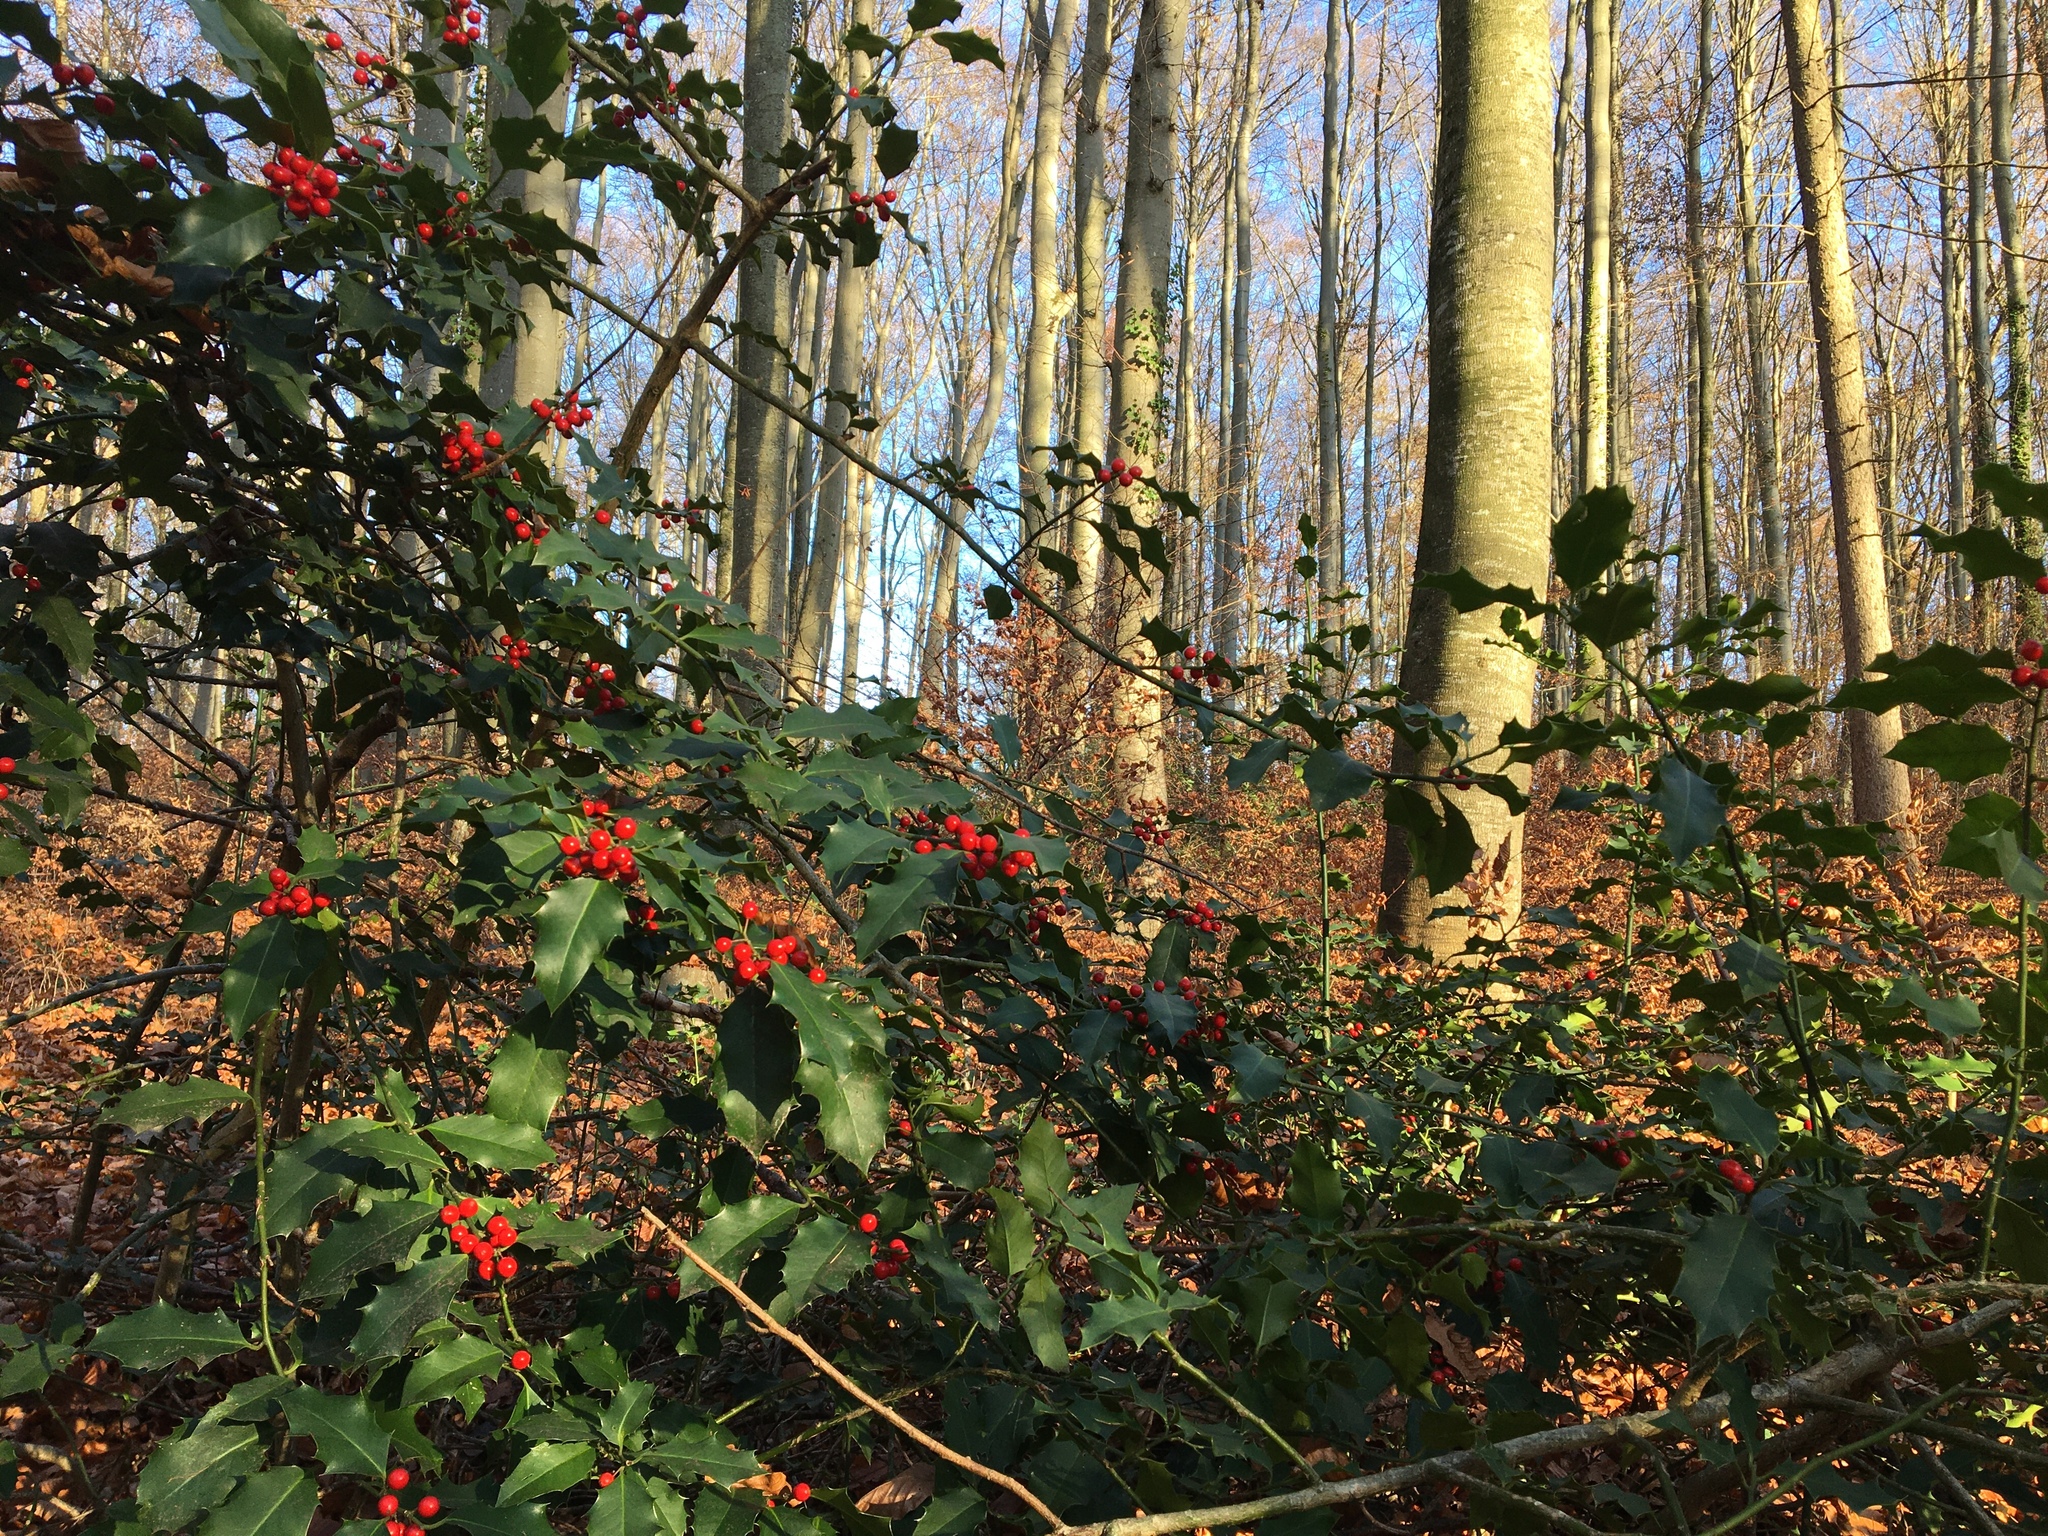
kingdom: Plantae
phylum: Tracheophyta
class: Magnoliopsida
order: Aquifoliales
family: Aquifoliaceae
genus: Ilex
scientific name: Ilex aquifolium
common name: English holly
